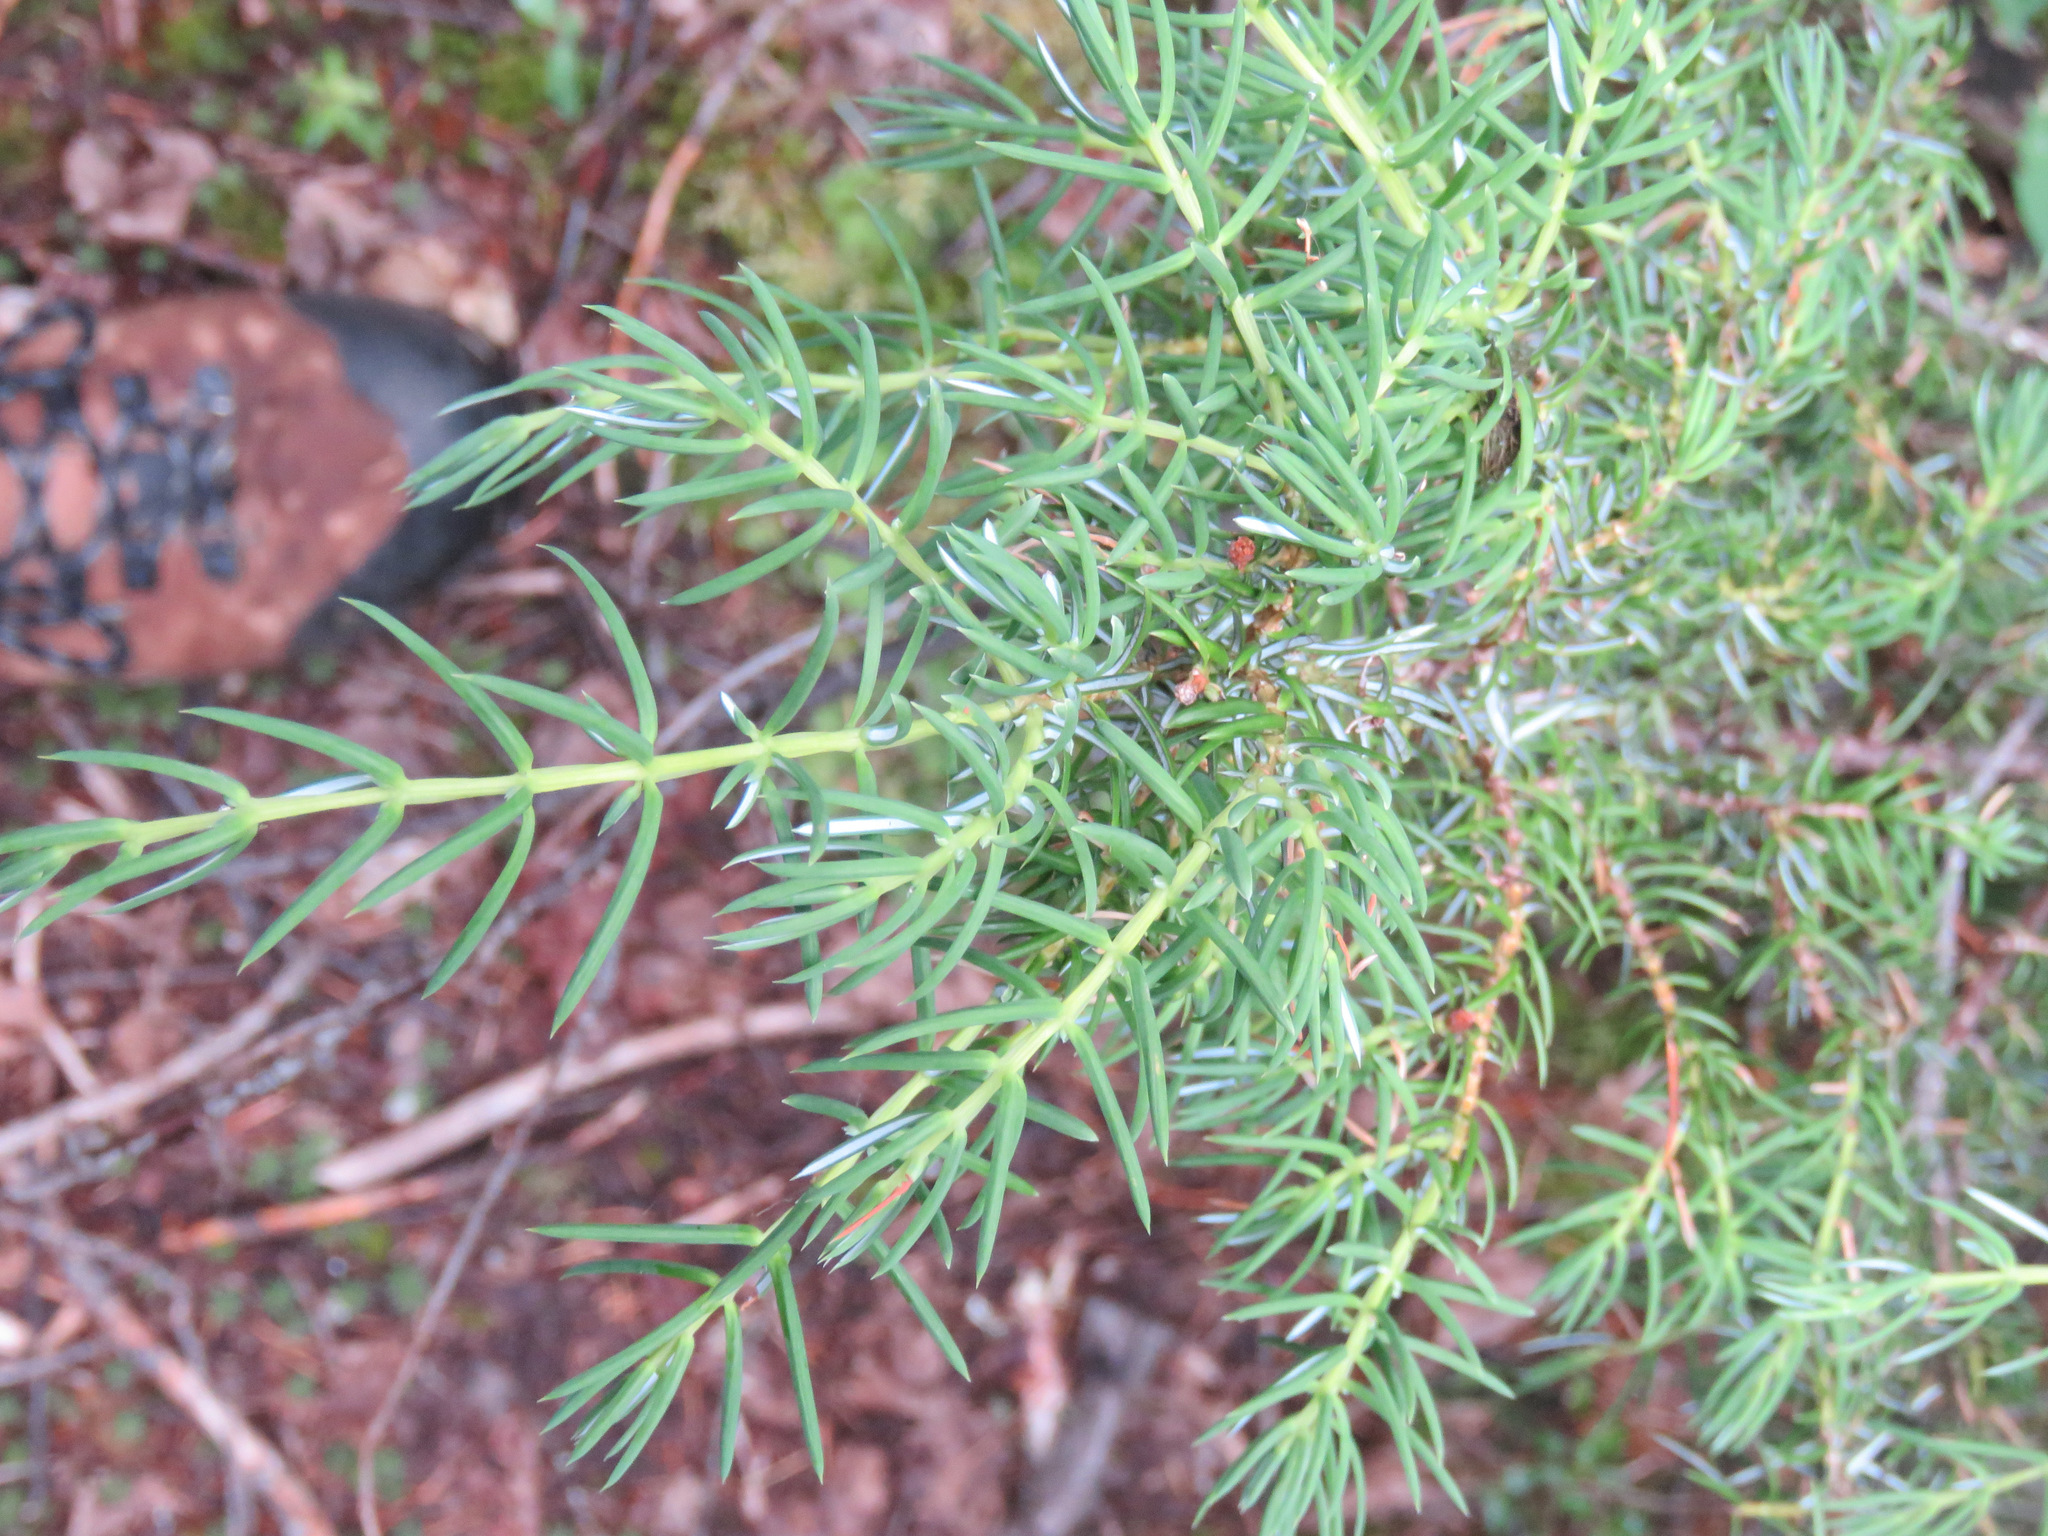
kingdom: Plantae
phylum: Tracheophyta
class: Pinopsida
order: Pinales
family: Cupressaceae
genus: Juniperus
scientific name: Juniperus communis
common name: Common juniper
